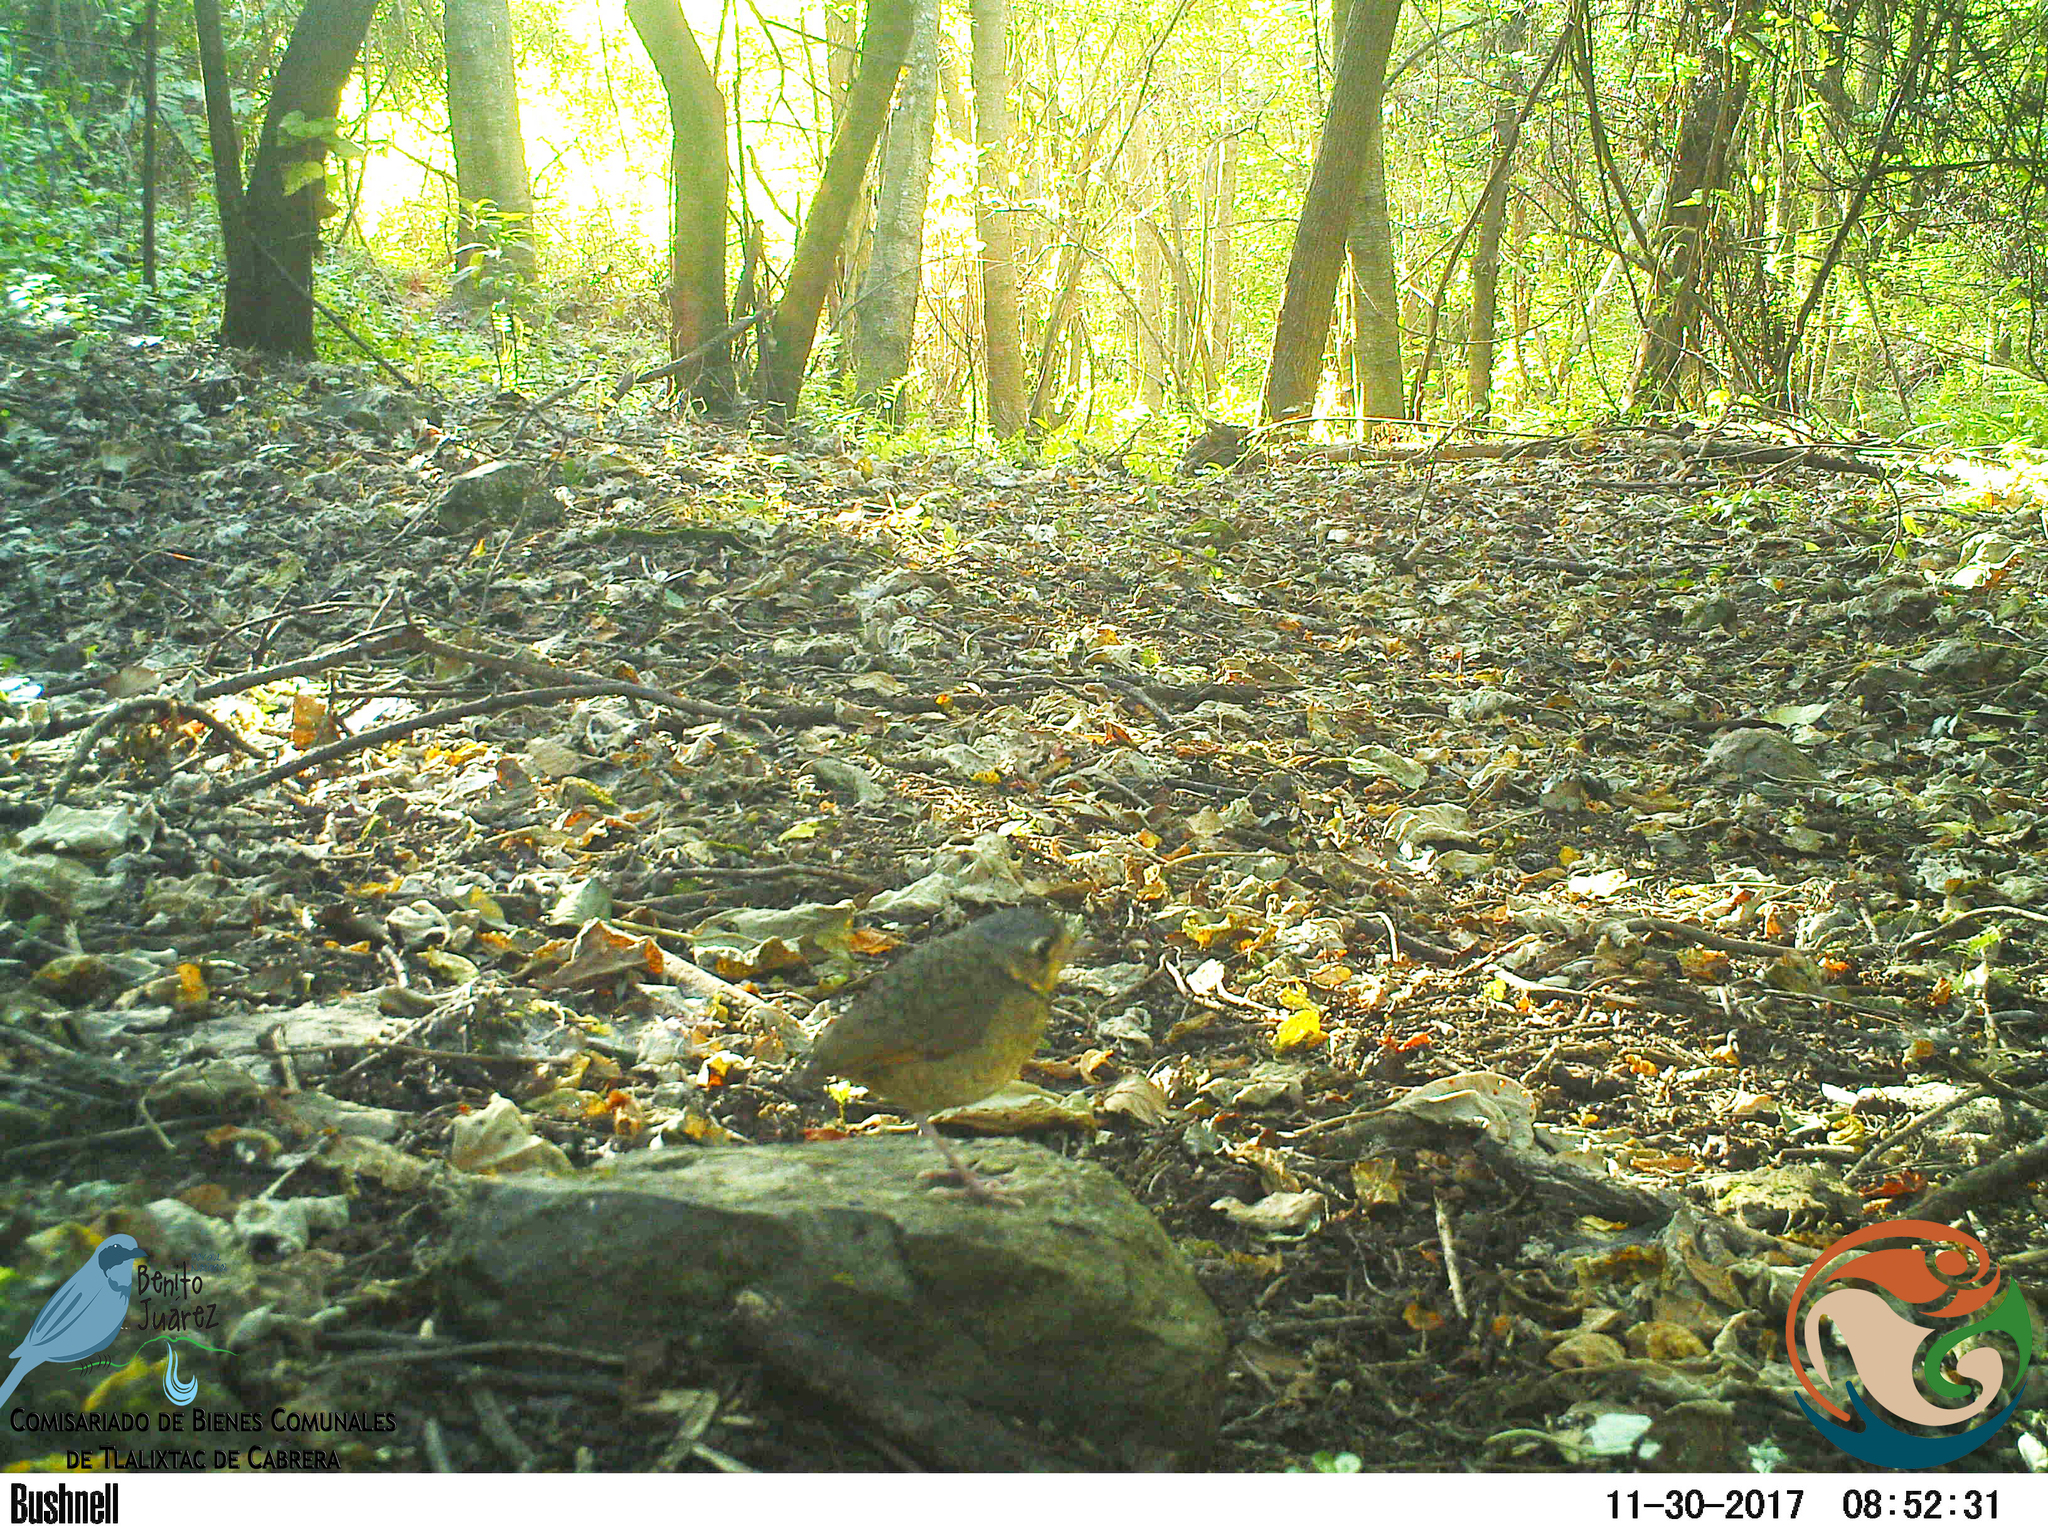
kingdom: Animalia
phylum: Chordata
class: Aves
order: Passeriformes
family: Grallariidae
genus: Grallaria
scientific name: Grallaria guatimalensis
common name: Scaled antpitta
